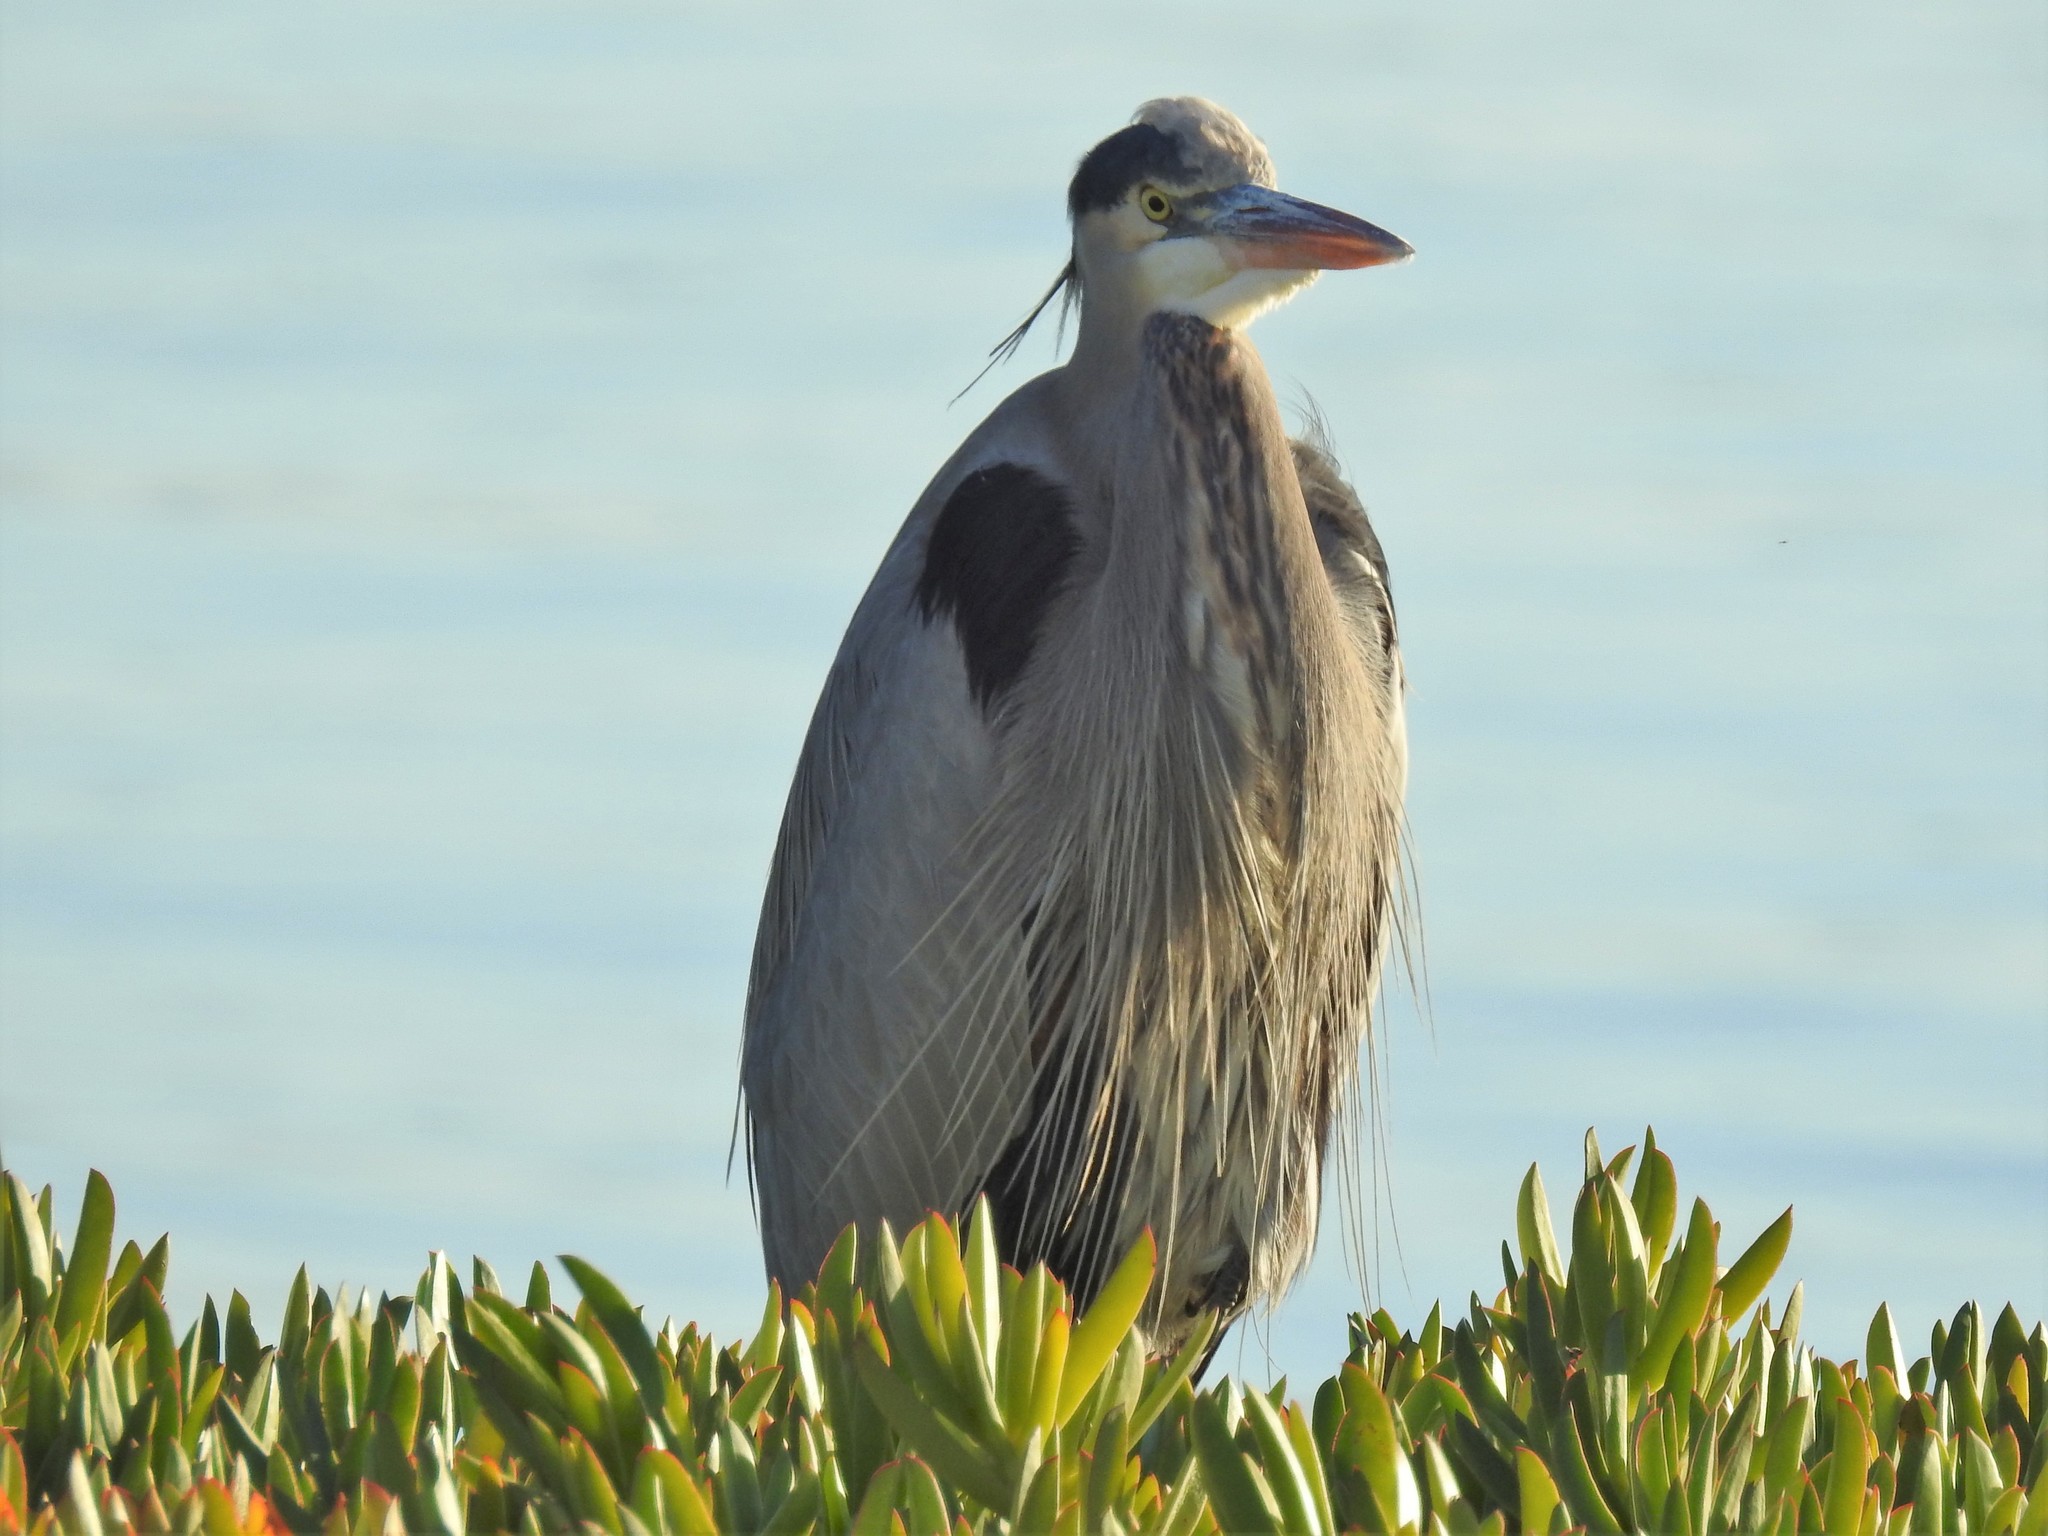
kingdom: Animalia
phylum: Chordata
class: Aves
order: Pelecaniformes
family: Ardeidae
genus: Ardea
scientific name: Ardea herodias
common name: Great blue heron
